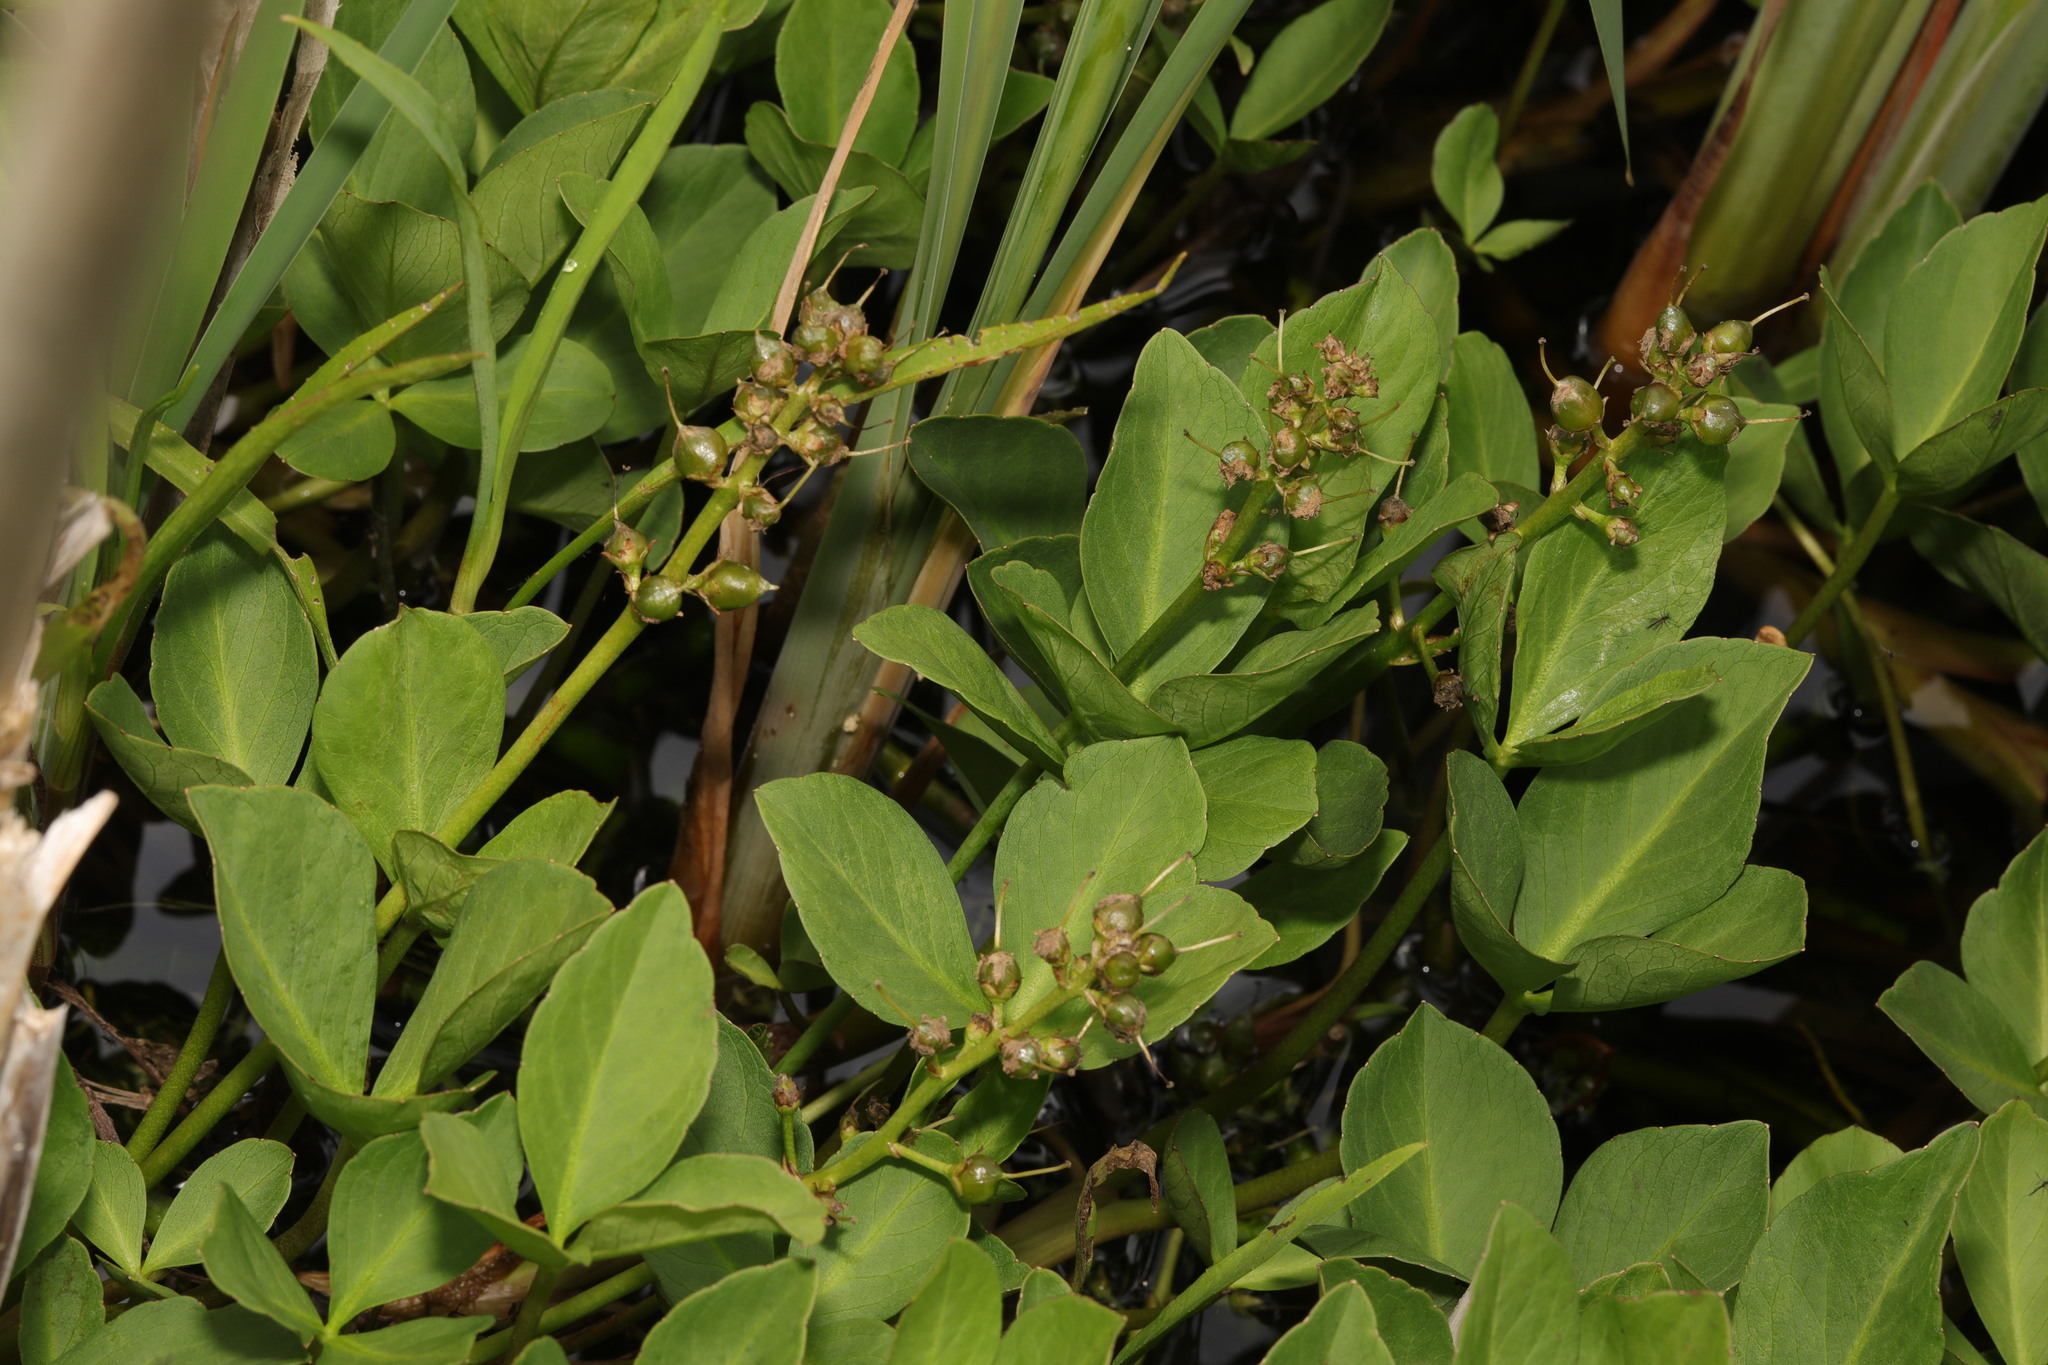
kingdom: Plantae
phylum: Tracheophyta
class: Magnoliopsida
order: Asterales
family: Menyanthaceae
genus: Menyanthes
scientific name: Menyanthes trifoliata
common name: Bogbean
